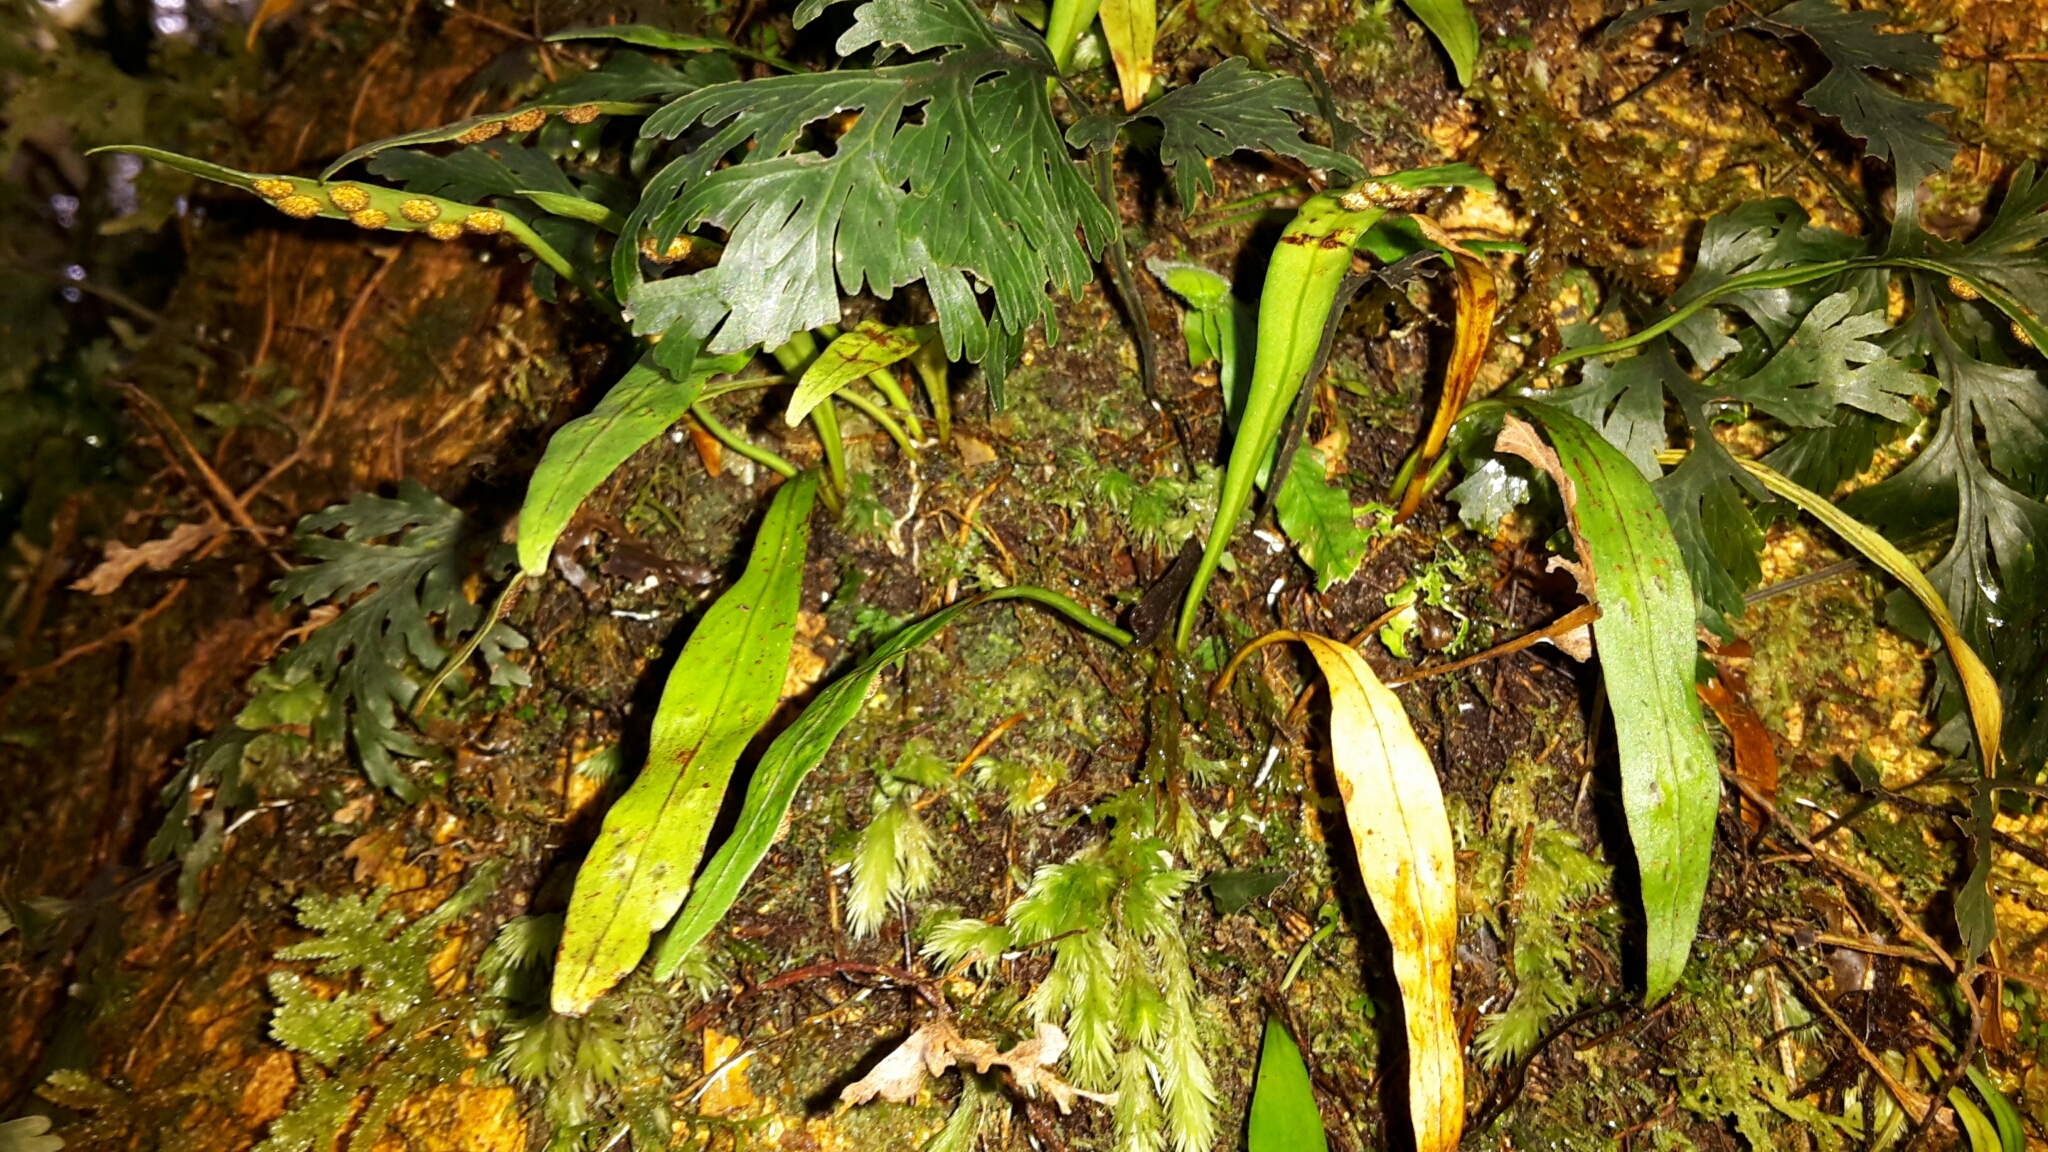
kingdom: Plantae
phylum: Tracheophyta
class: Polypodiopsida
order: Polypodiales
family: Polypodiaceae
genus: Loxogramme
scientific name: Loxogramme dictyopteris
